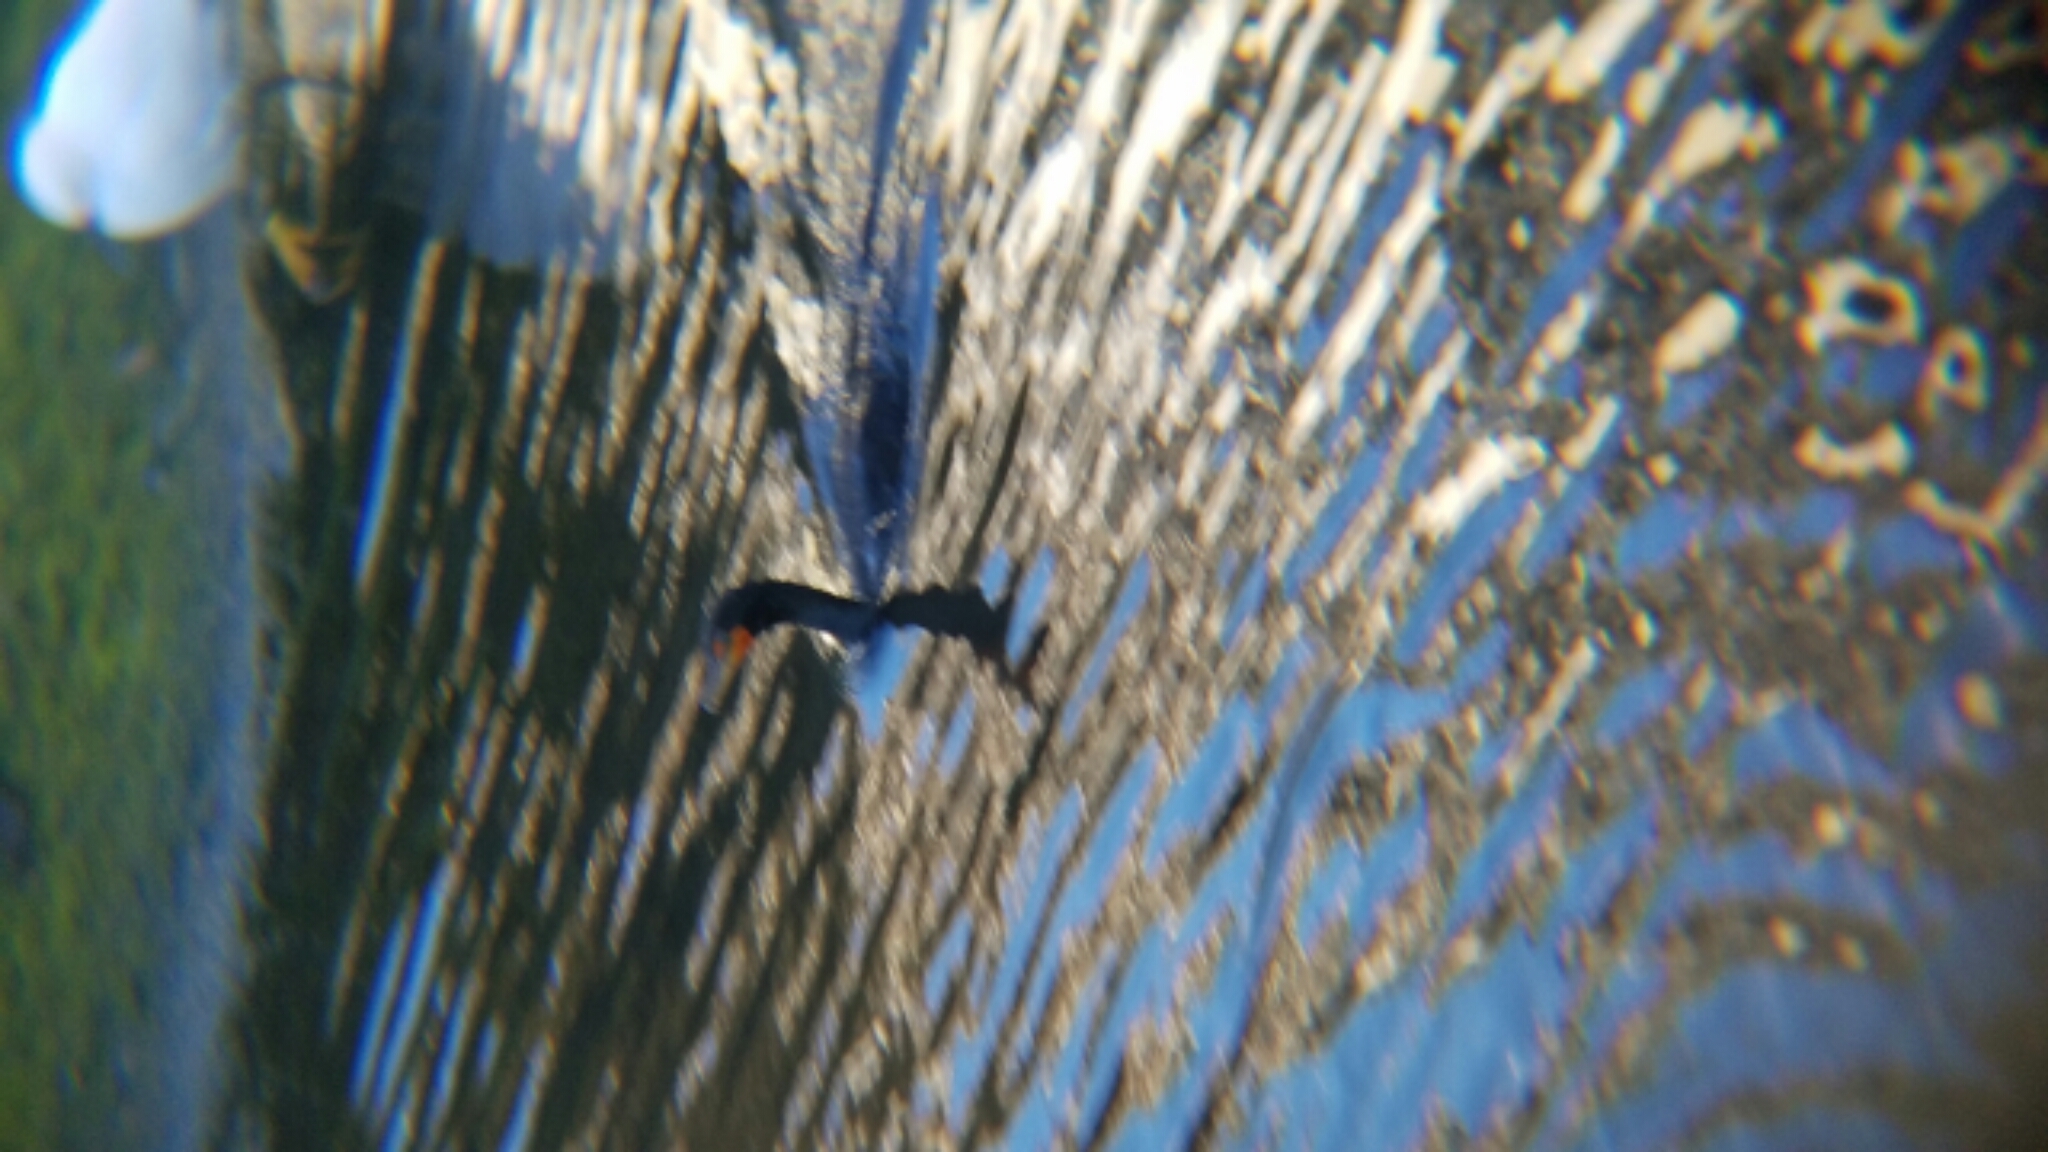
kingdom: Animalia
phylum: Chordata
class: Aves
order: Suliformes
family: Phalacrocoracidae
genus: Phalacrocorax
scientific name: Phalacrocorax auritus
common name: Double-crested cormorant
